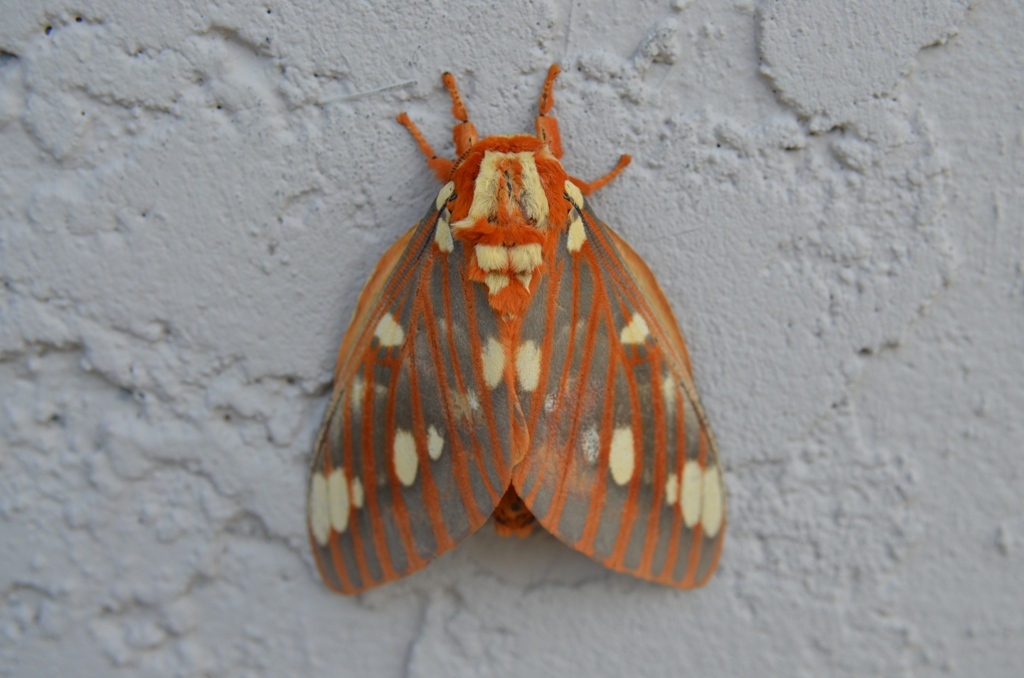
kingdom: Animalia
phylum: Arthropoda
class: Insecta
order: Lepidoptera
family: Saturniidae
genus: Citheronia
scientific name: Citheronia regalis
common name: Hickory horned devil
